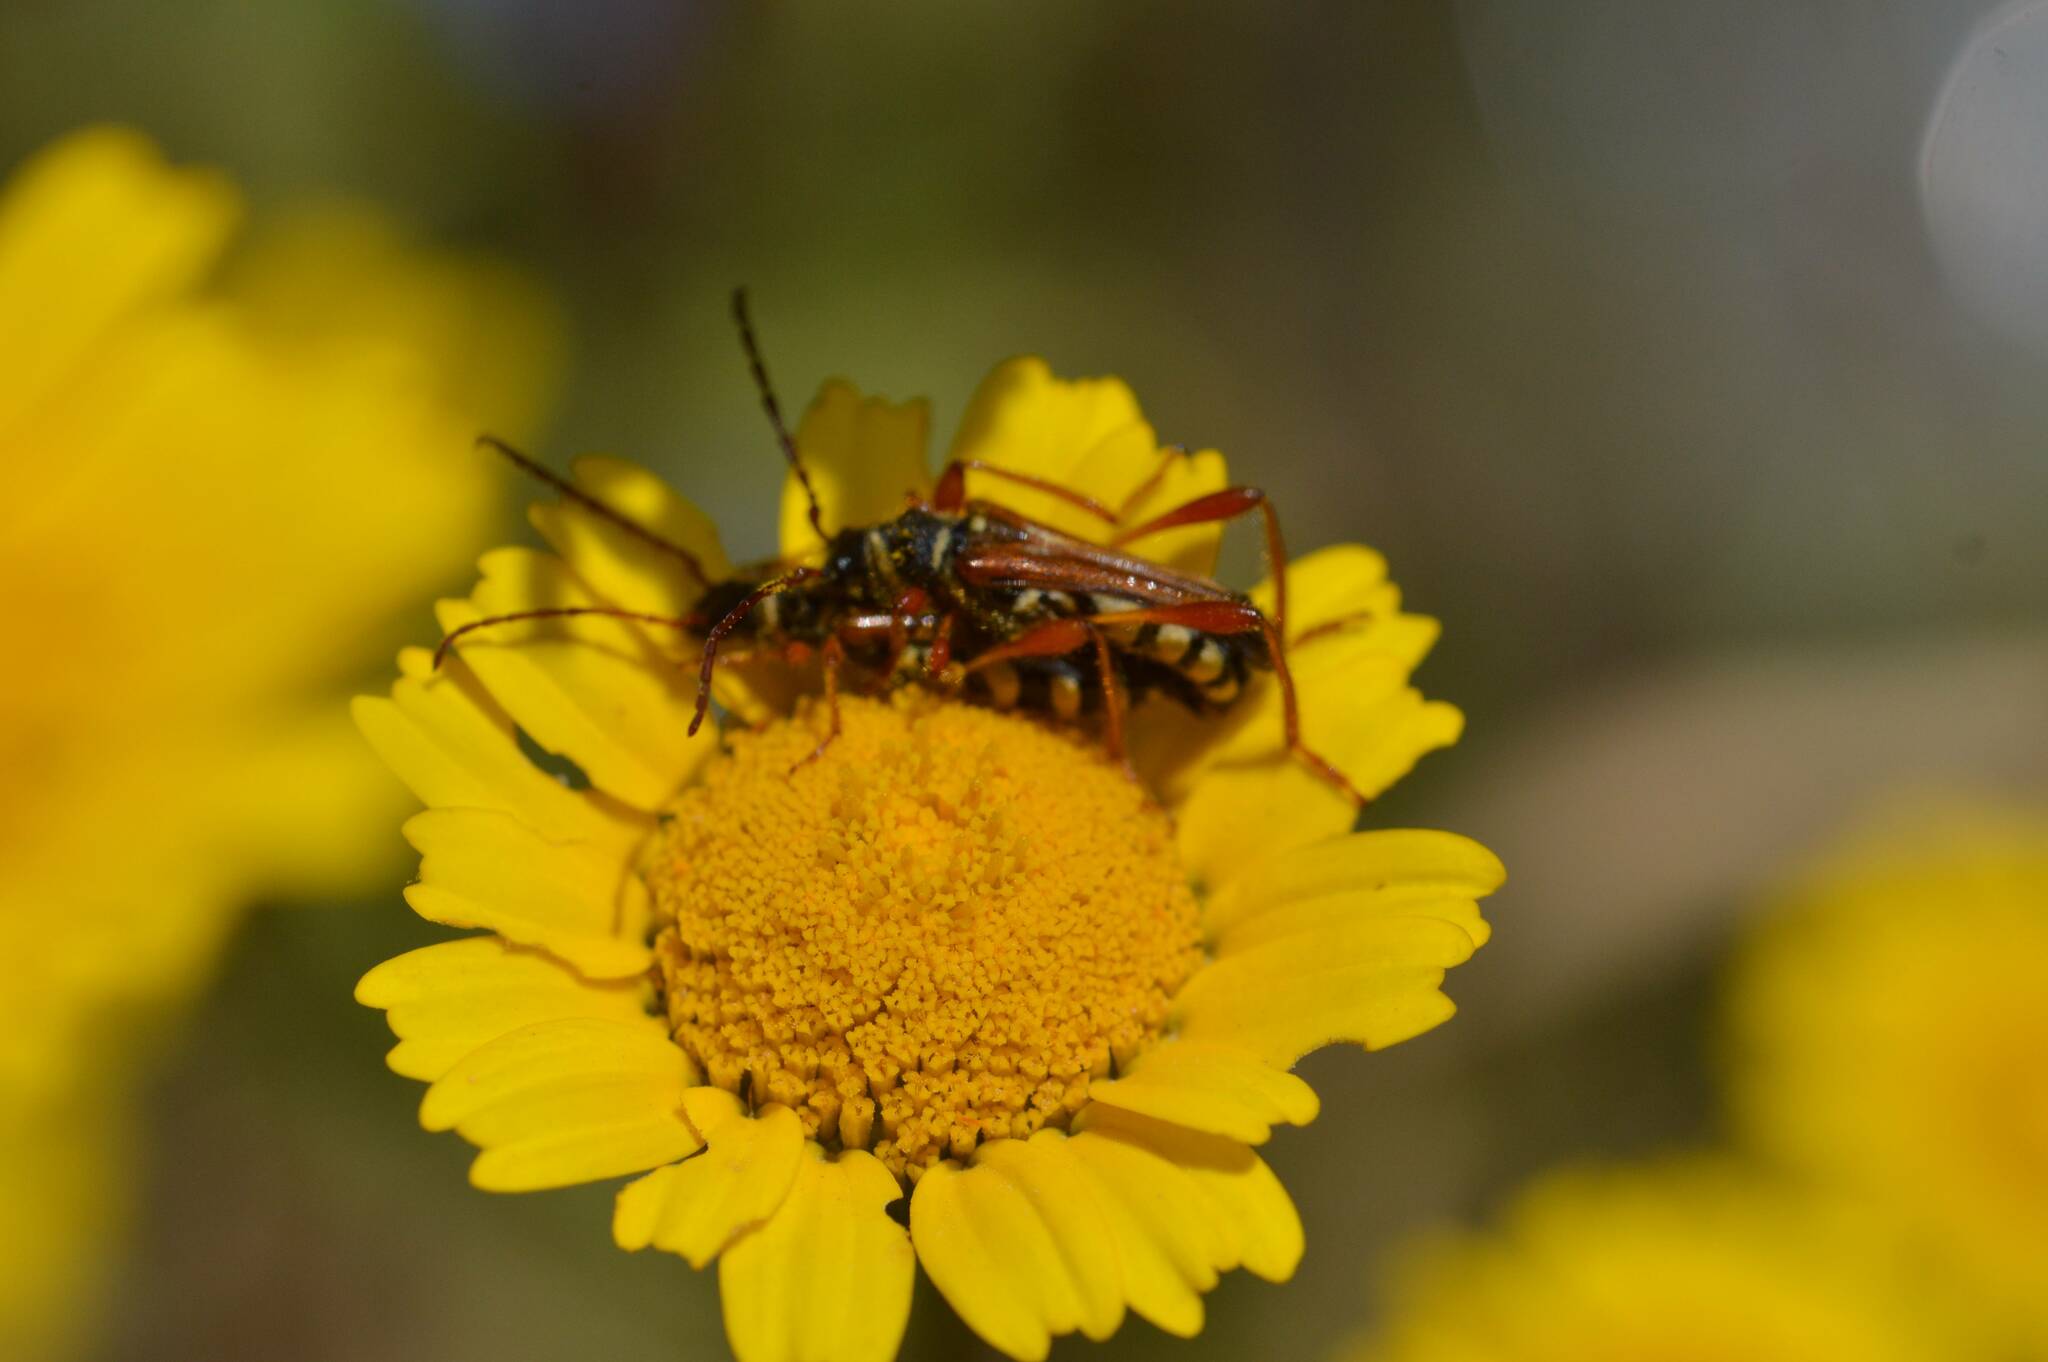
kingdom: Animalia
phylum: Arthropoda
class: Insecta
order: Coleoptera
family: Cerambycidae
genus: Stenopterus
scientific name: Stenopterus mauritanicus
